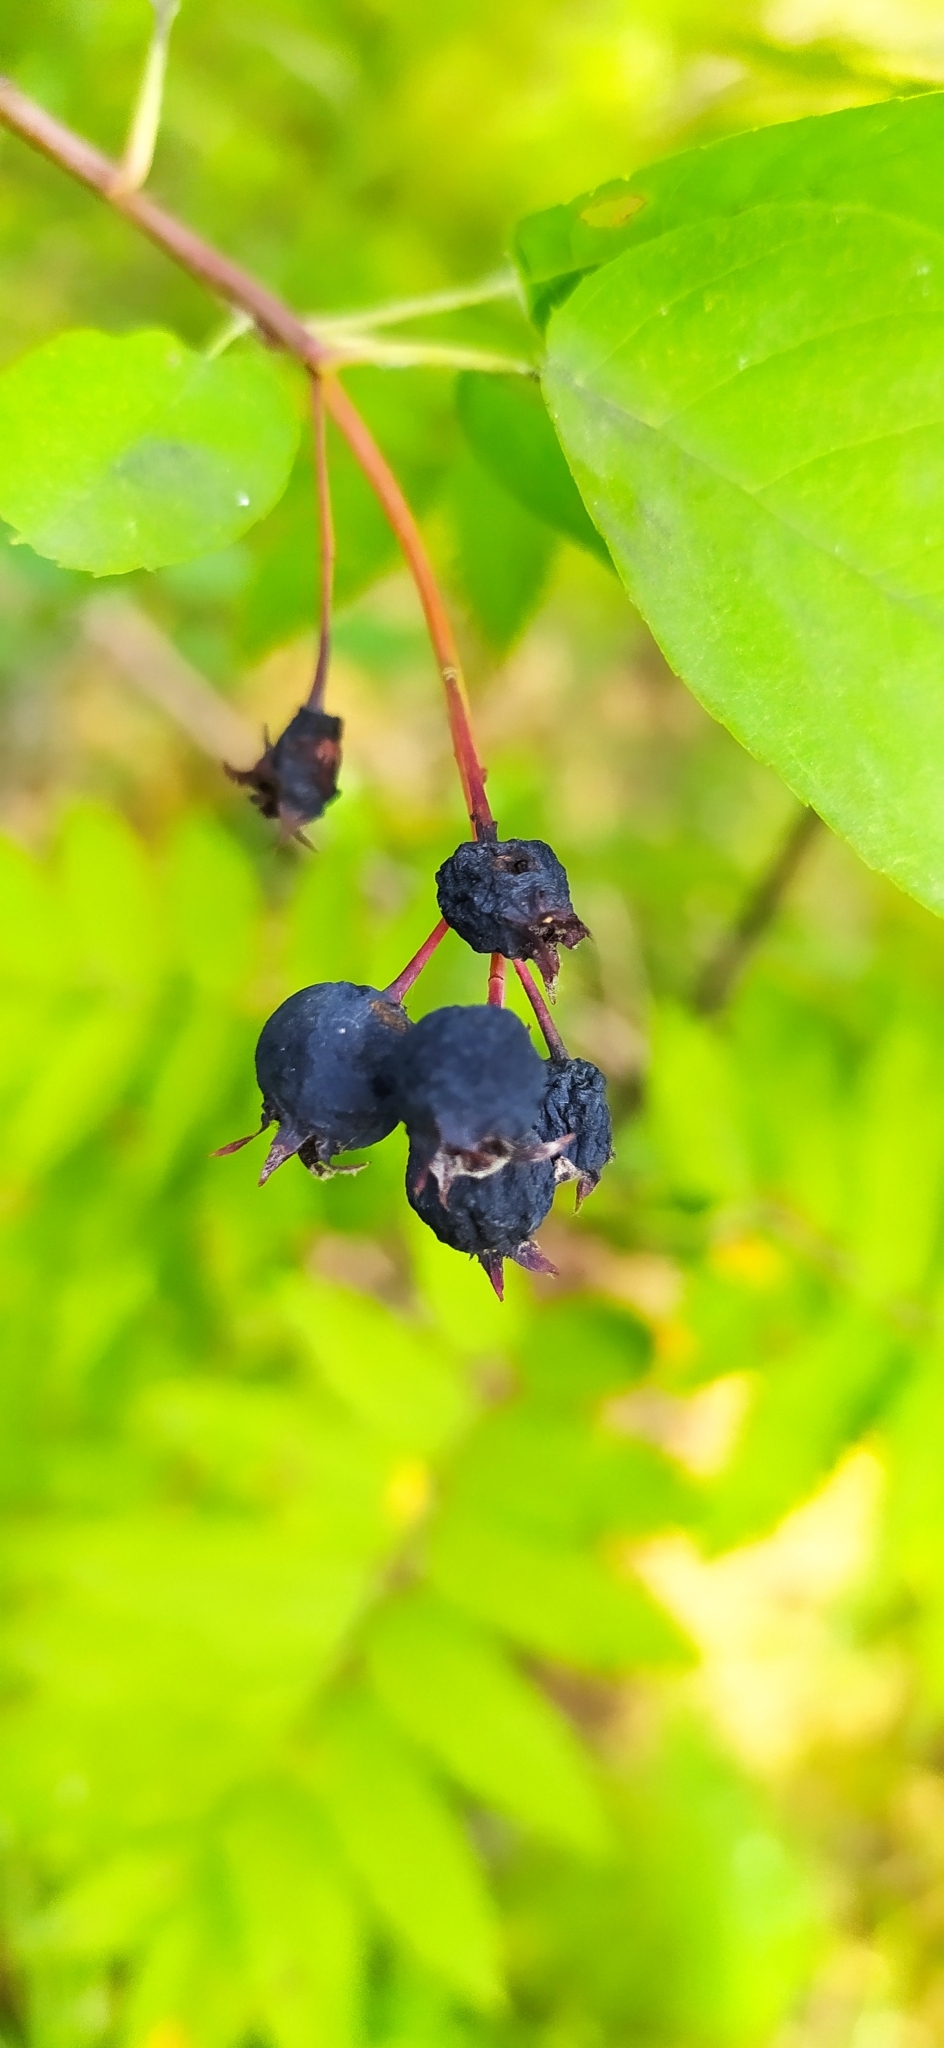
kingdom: Plantae
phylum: Tracheophyta
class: Magnoliopsida
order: Rosales
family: Rosaceae
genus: Amelanchier
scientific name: Amelanchier
